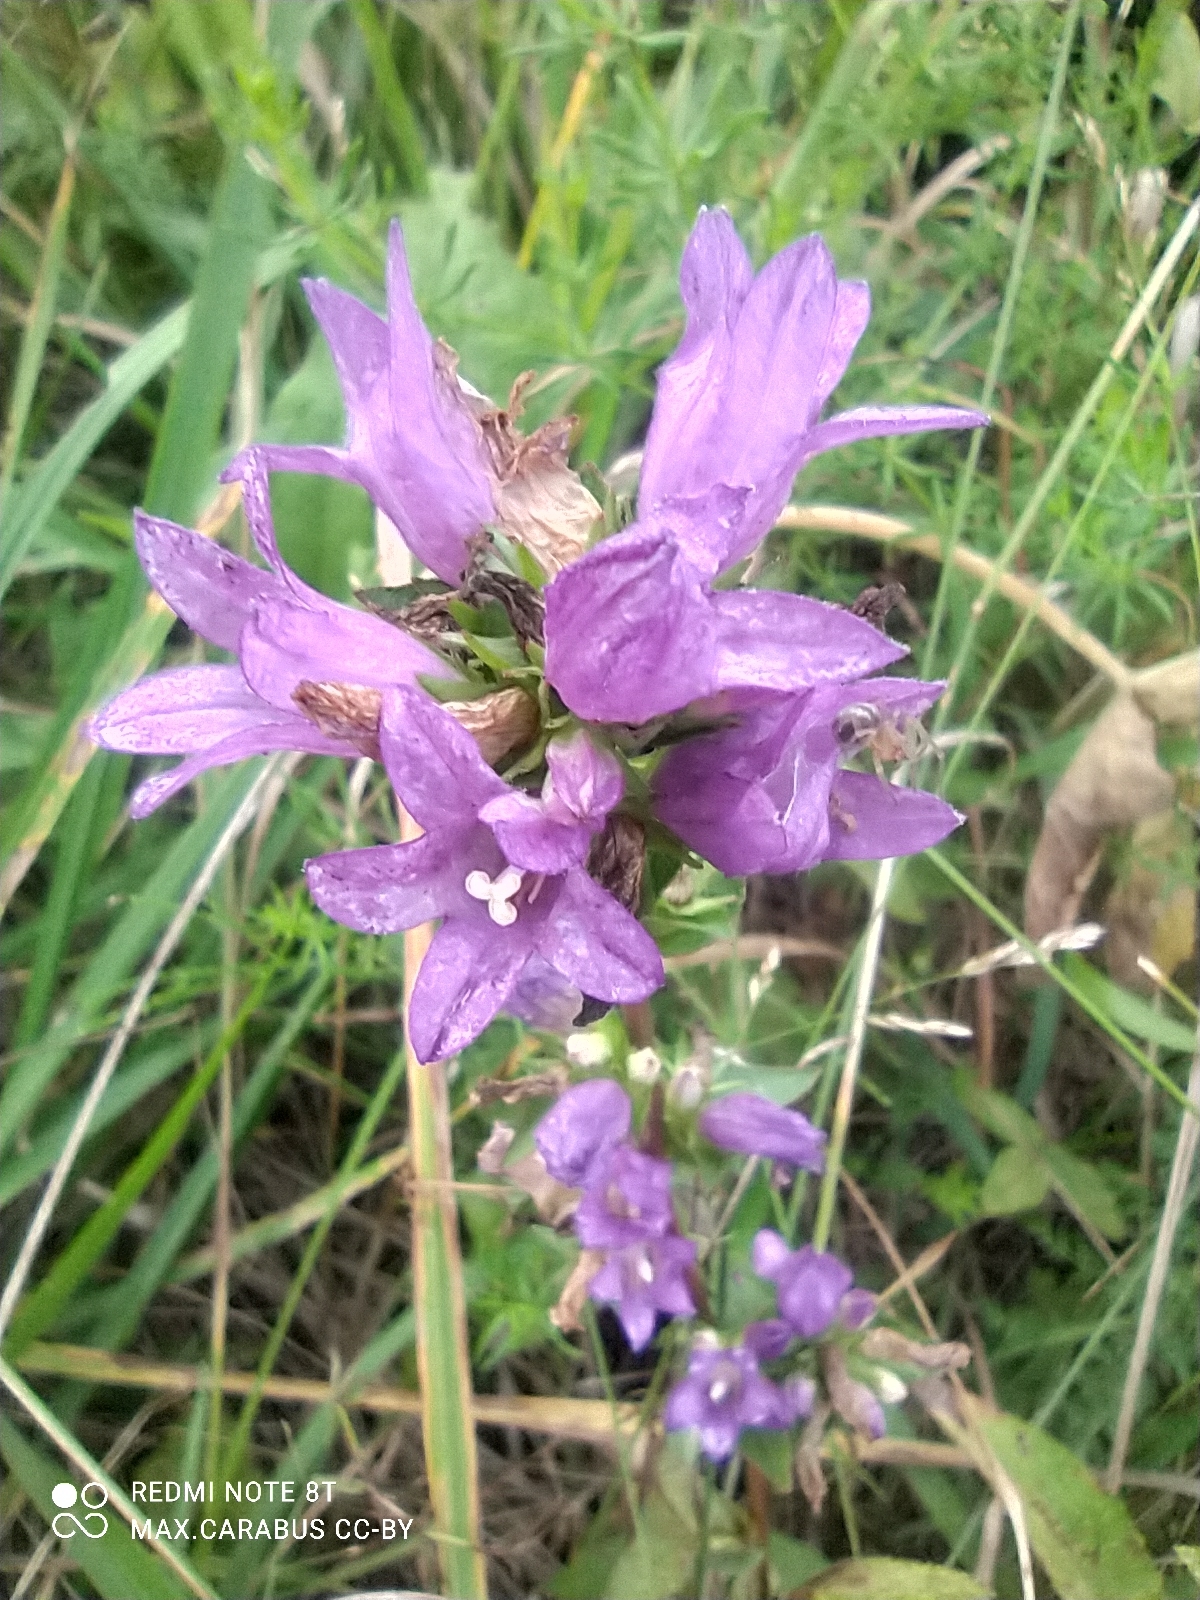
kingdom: Plantae
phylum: Tracheophyta
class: Magnoliopsida
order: Asterales
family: Campanulaceae
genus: Campanula
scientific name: Campanula glomerata
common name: Clustered bellflower
